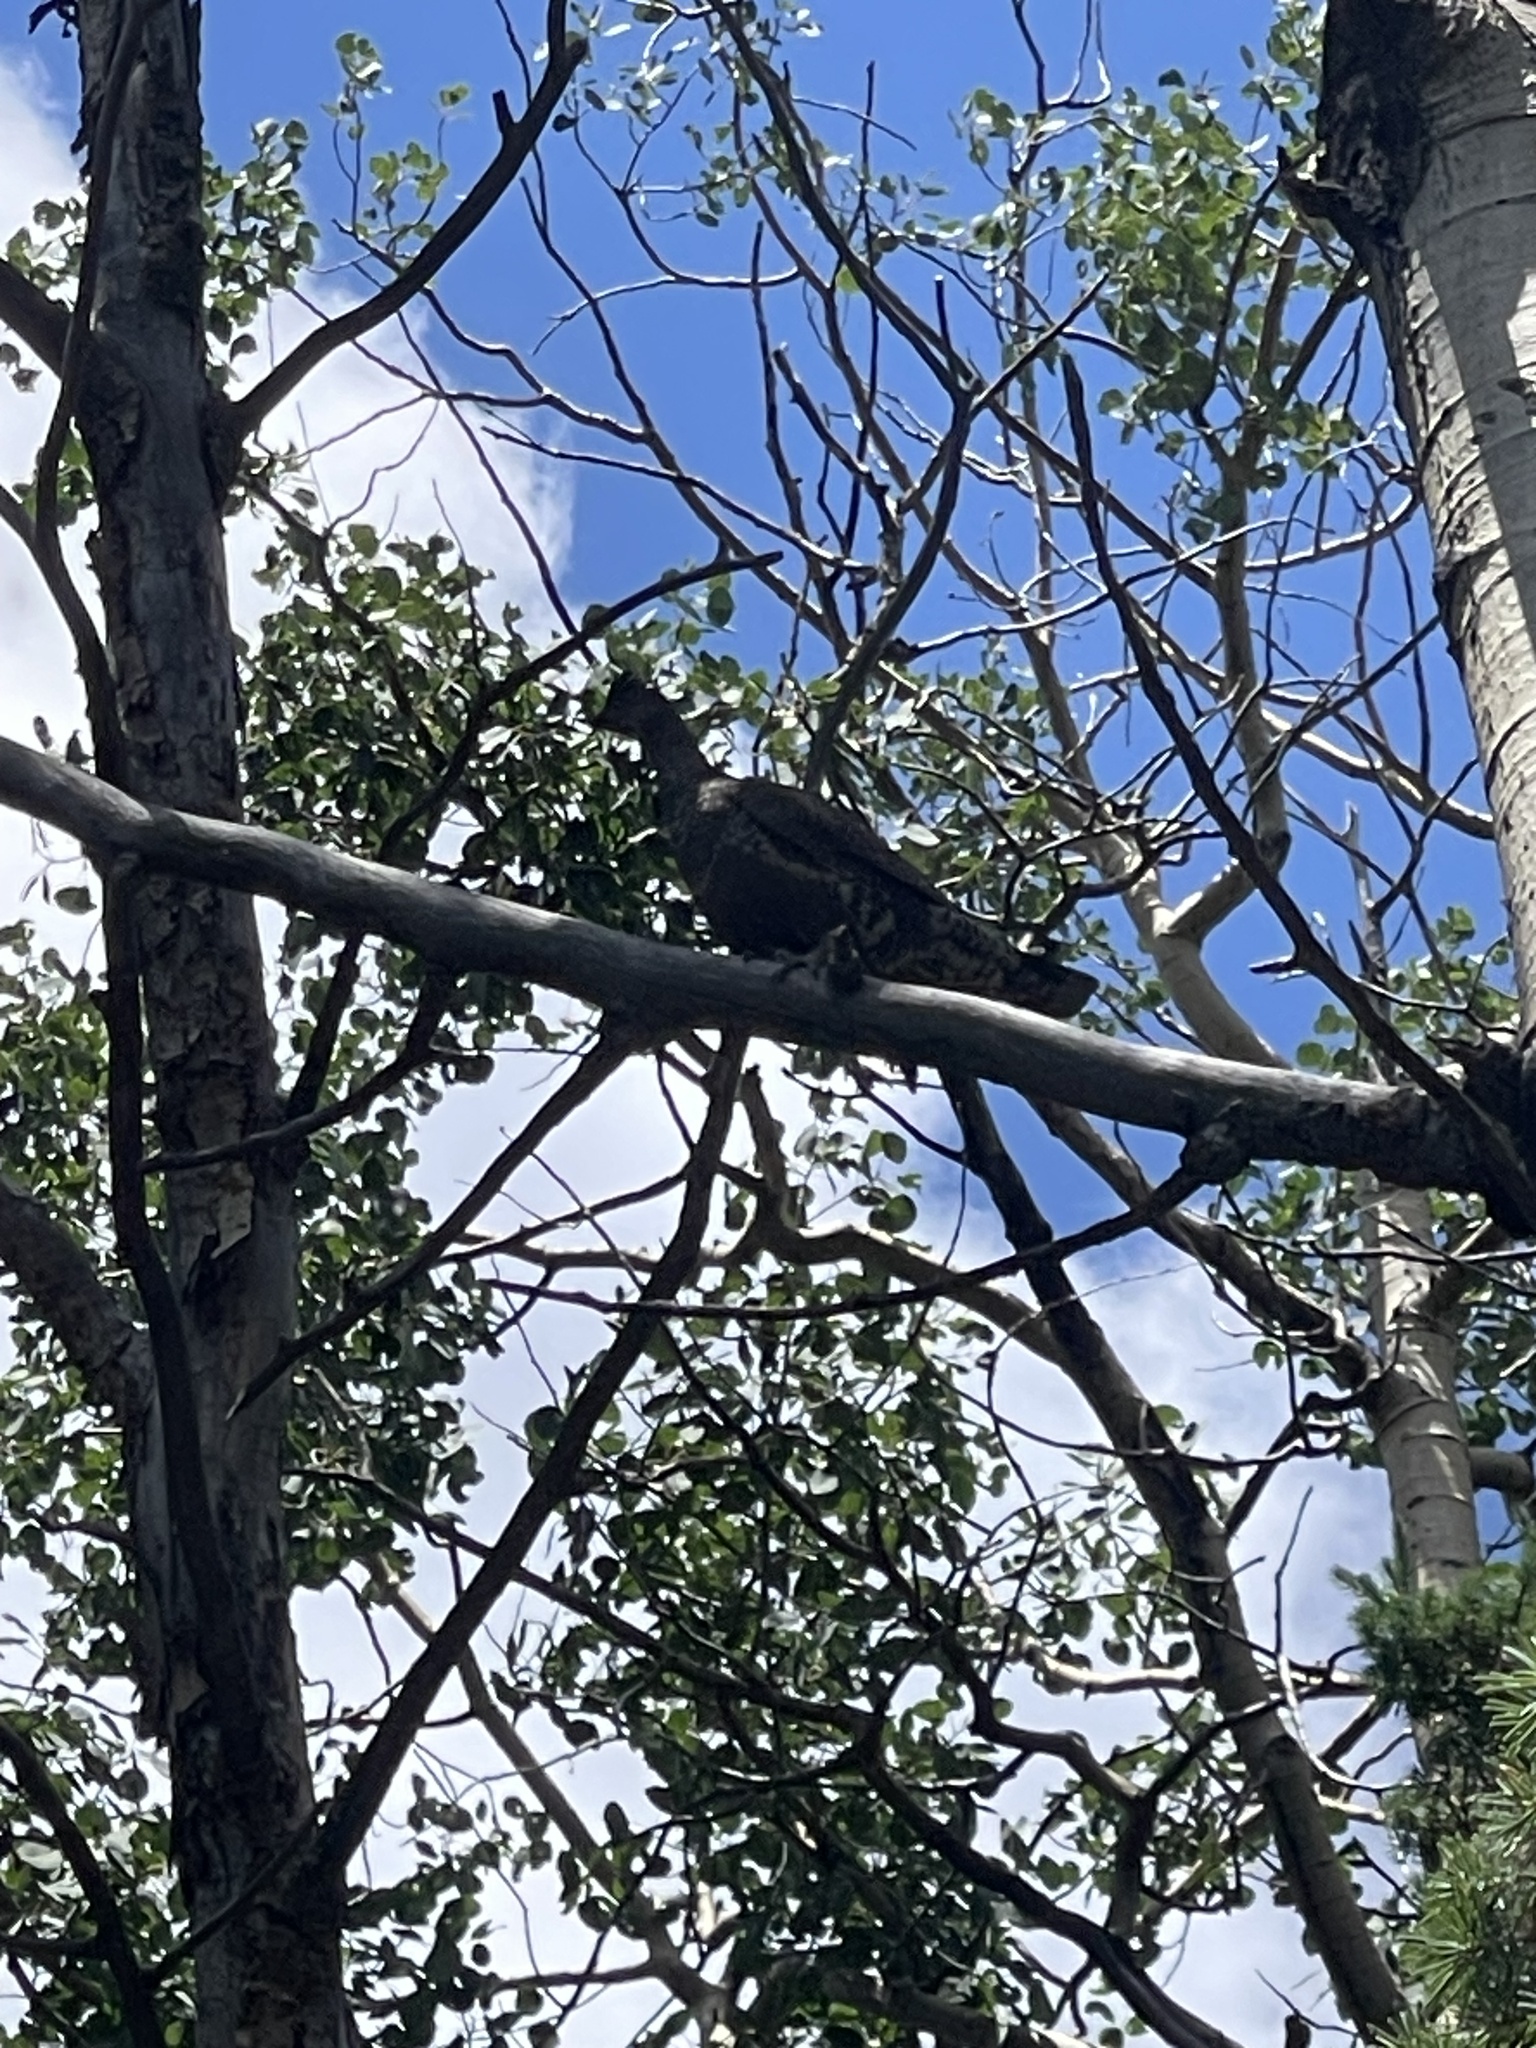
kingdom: Animalia
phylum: Chordata
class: Aves
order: Galliformes
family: Phasianidae
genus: Dendragapus
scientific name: Dendragapus obscurus
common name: Dusky grouse
